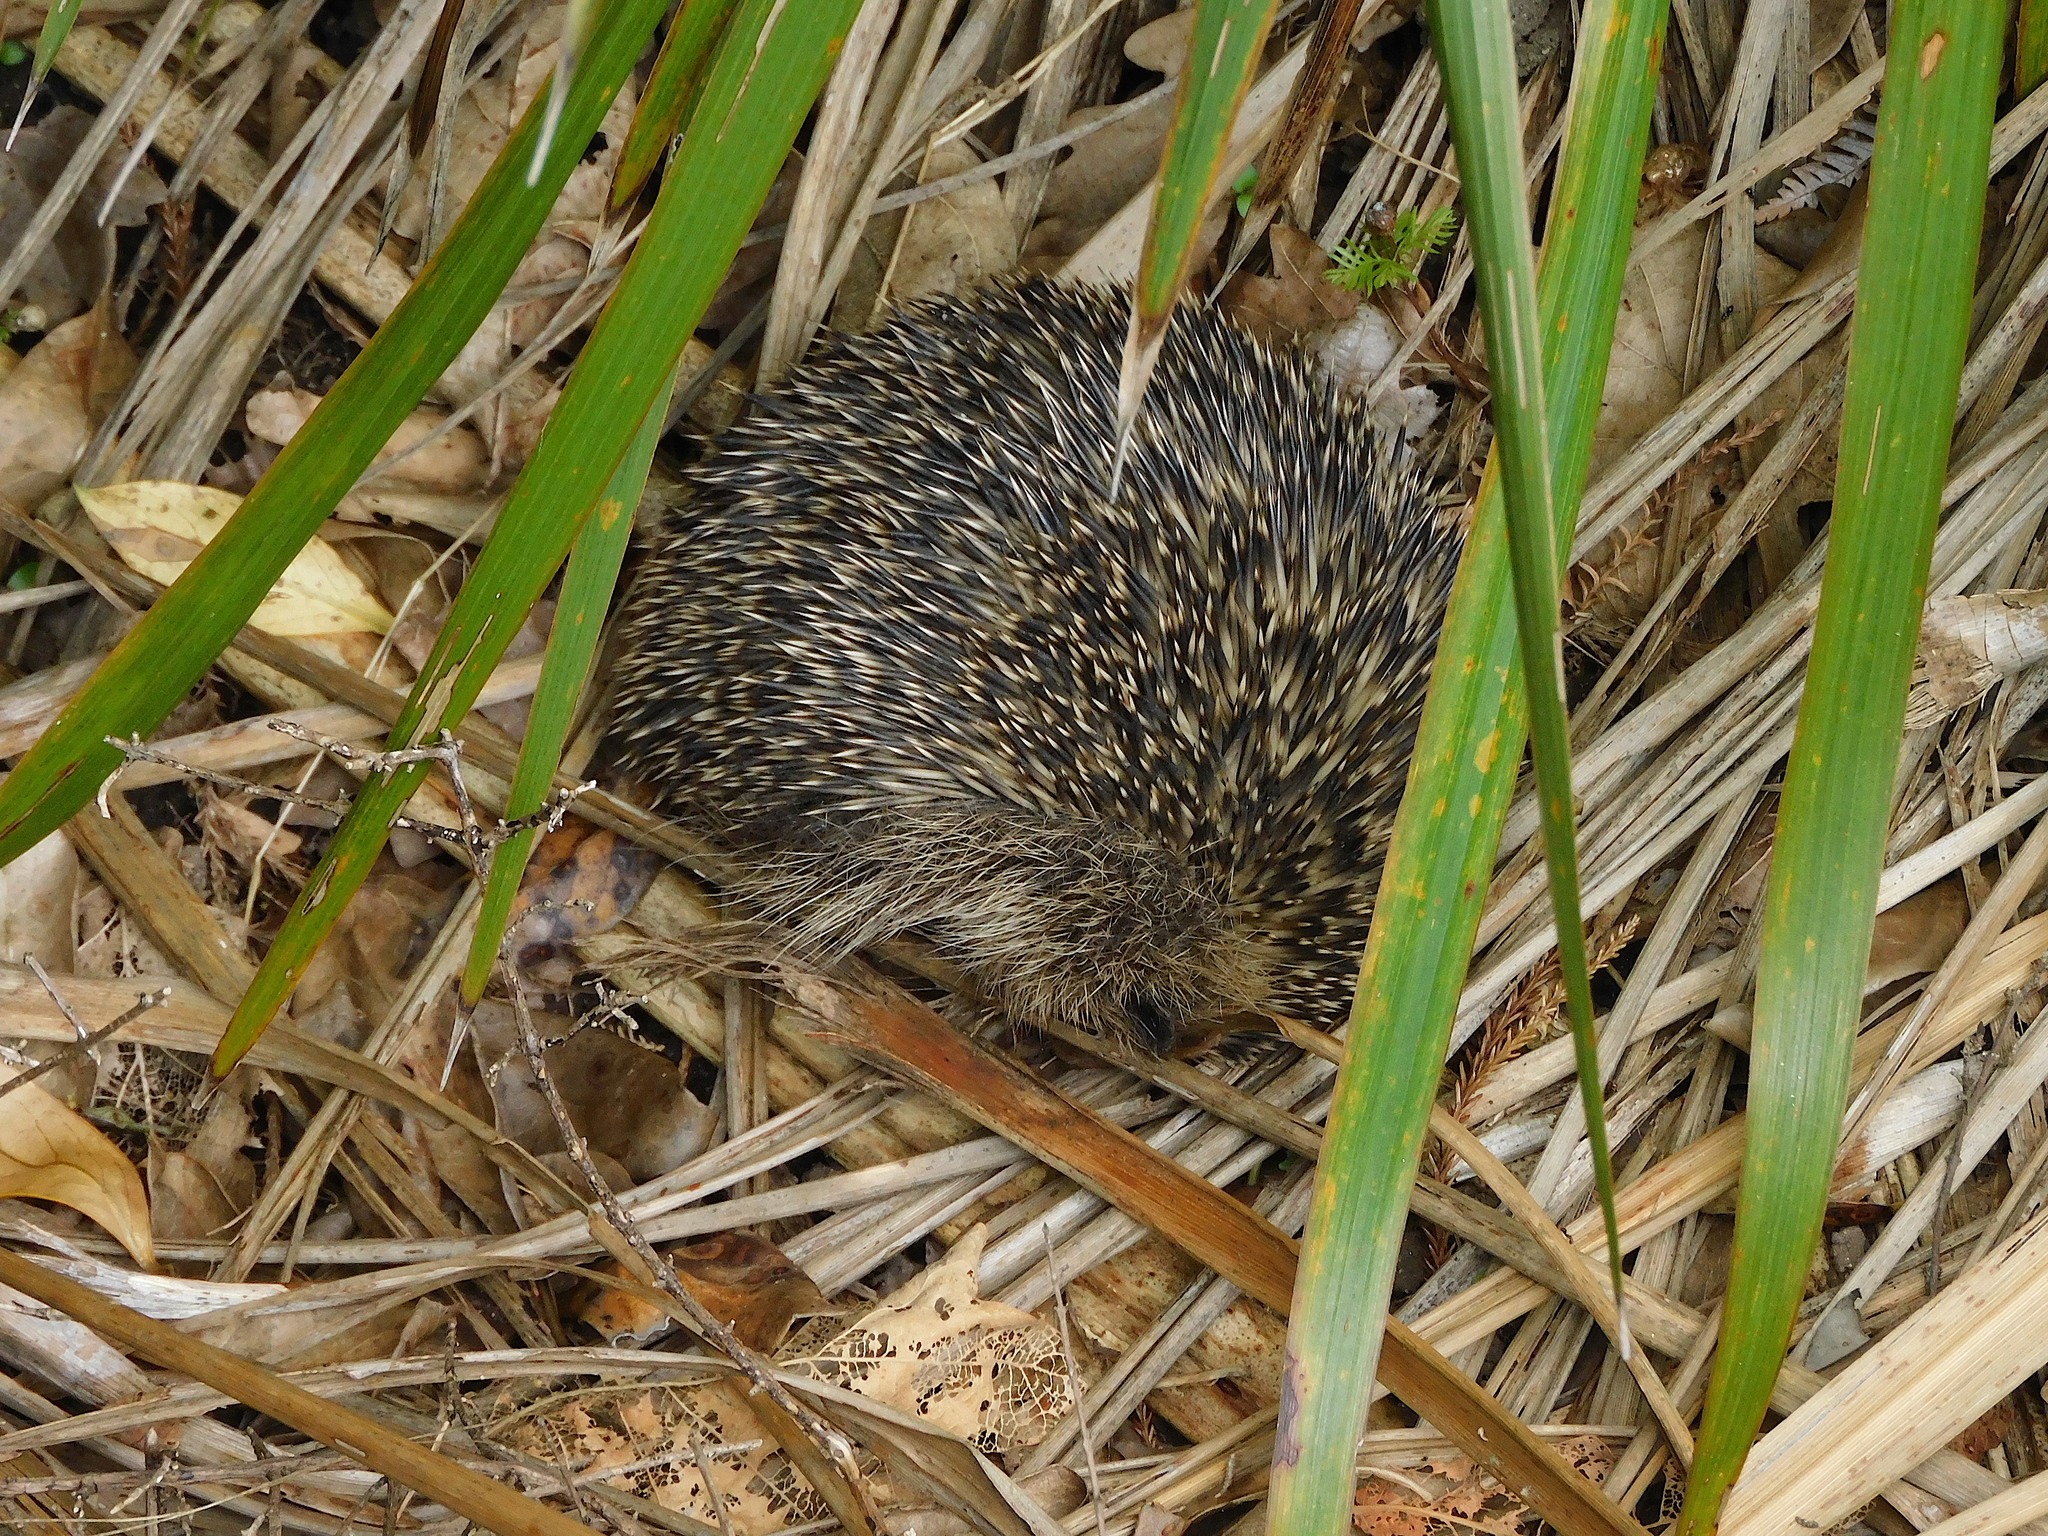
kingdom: Animalia
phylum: Chordata
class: Mammalia
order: Erinaceomorpha
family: Erinaceidae
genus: Erinaceus
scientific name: Erinaceus europaeus
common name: West european hedgehog
